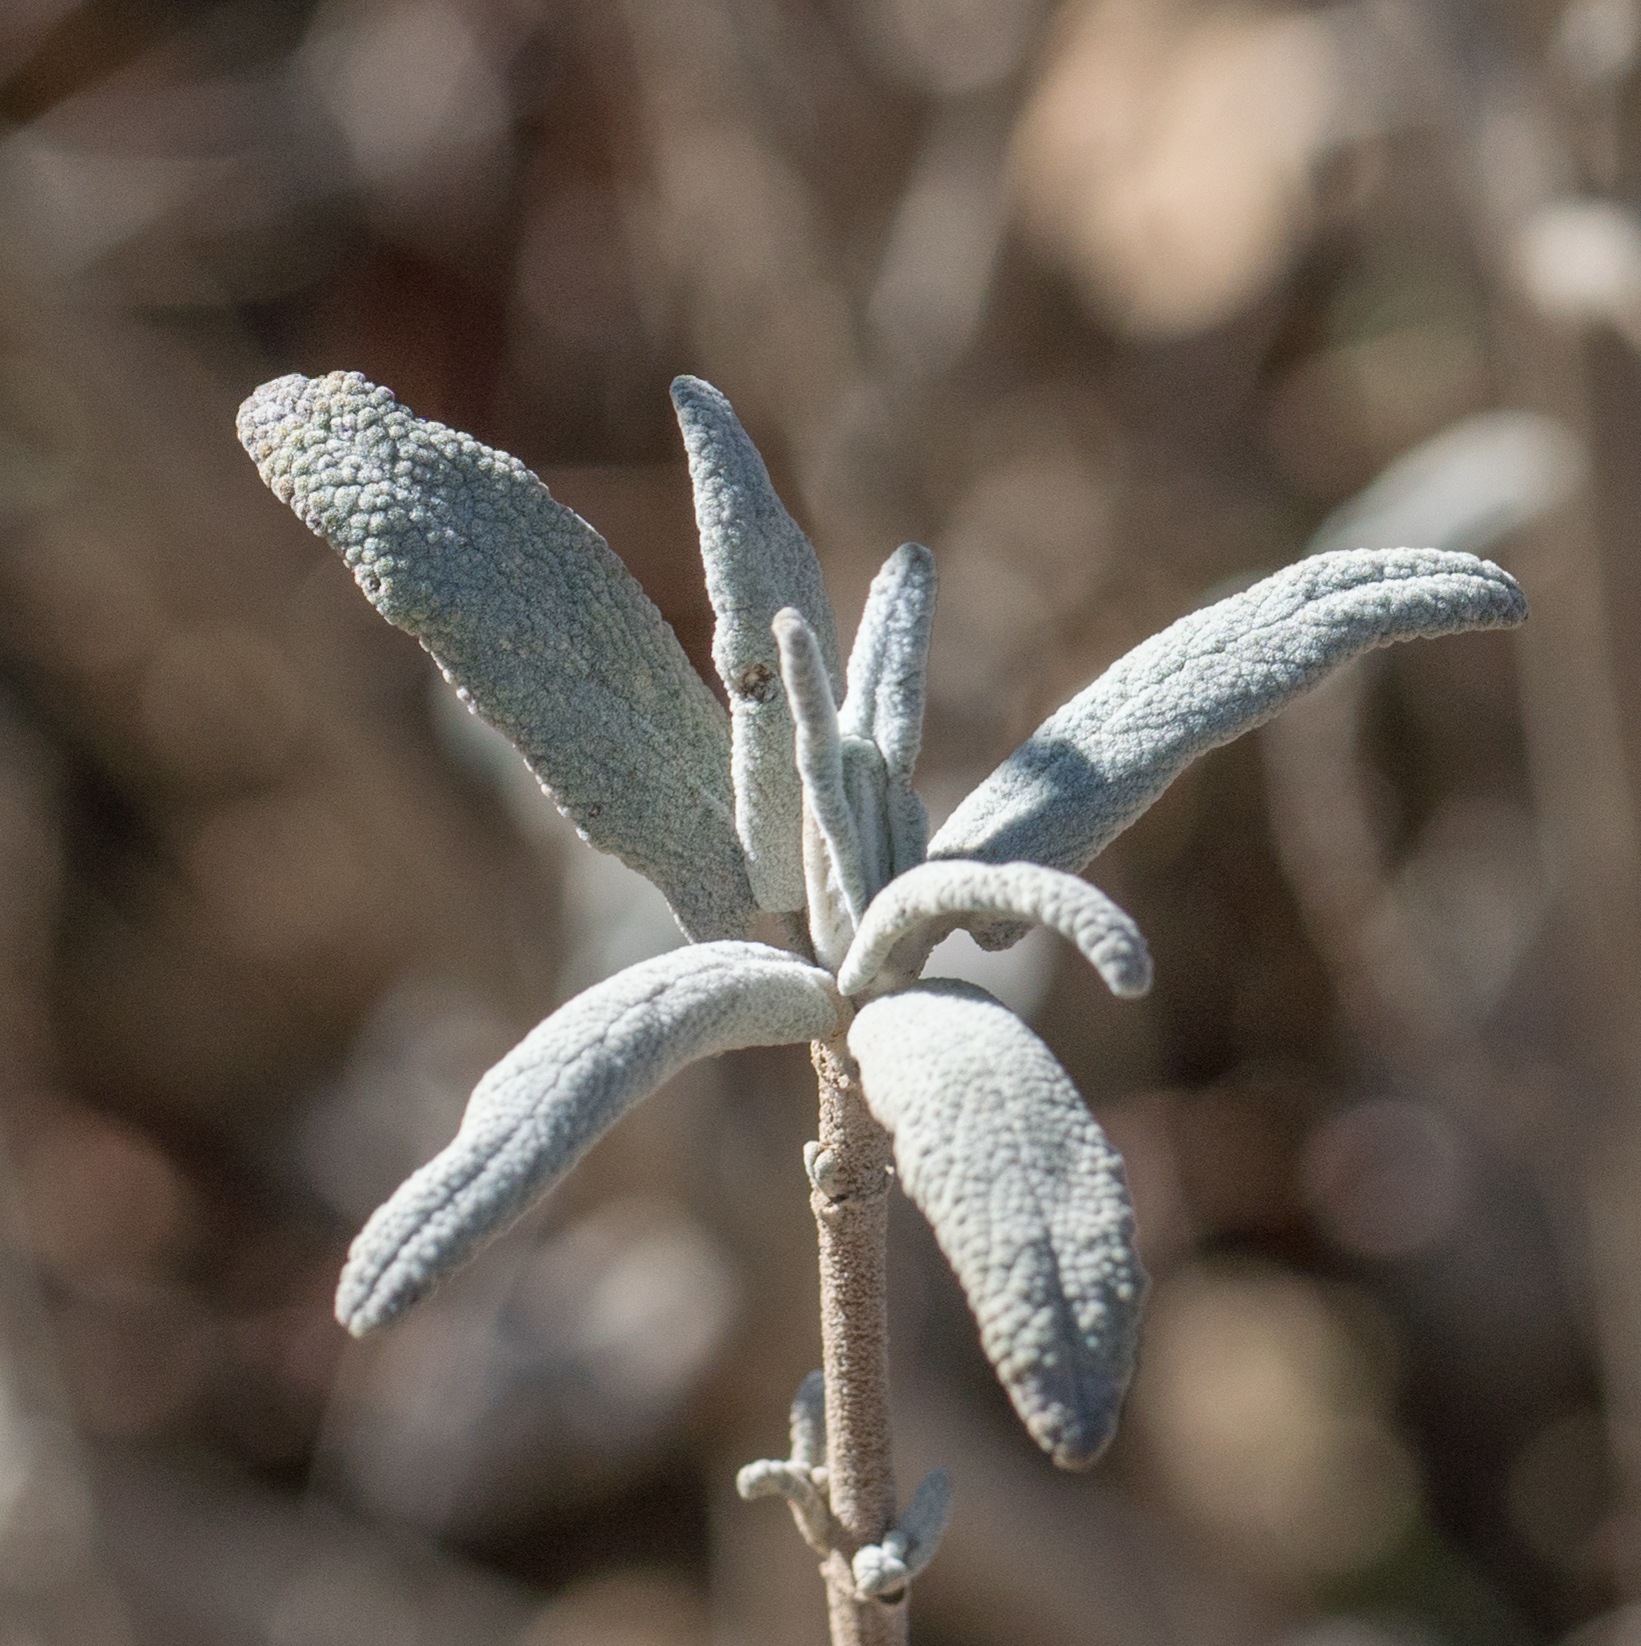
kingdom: Plantae
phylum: Tracheophyta
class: Magnoliopsida
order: Lamiales
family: Lamiaceae
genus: Salvia
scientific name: Salvia leucophylla
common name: Purple sage
